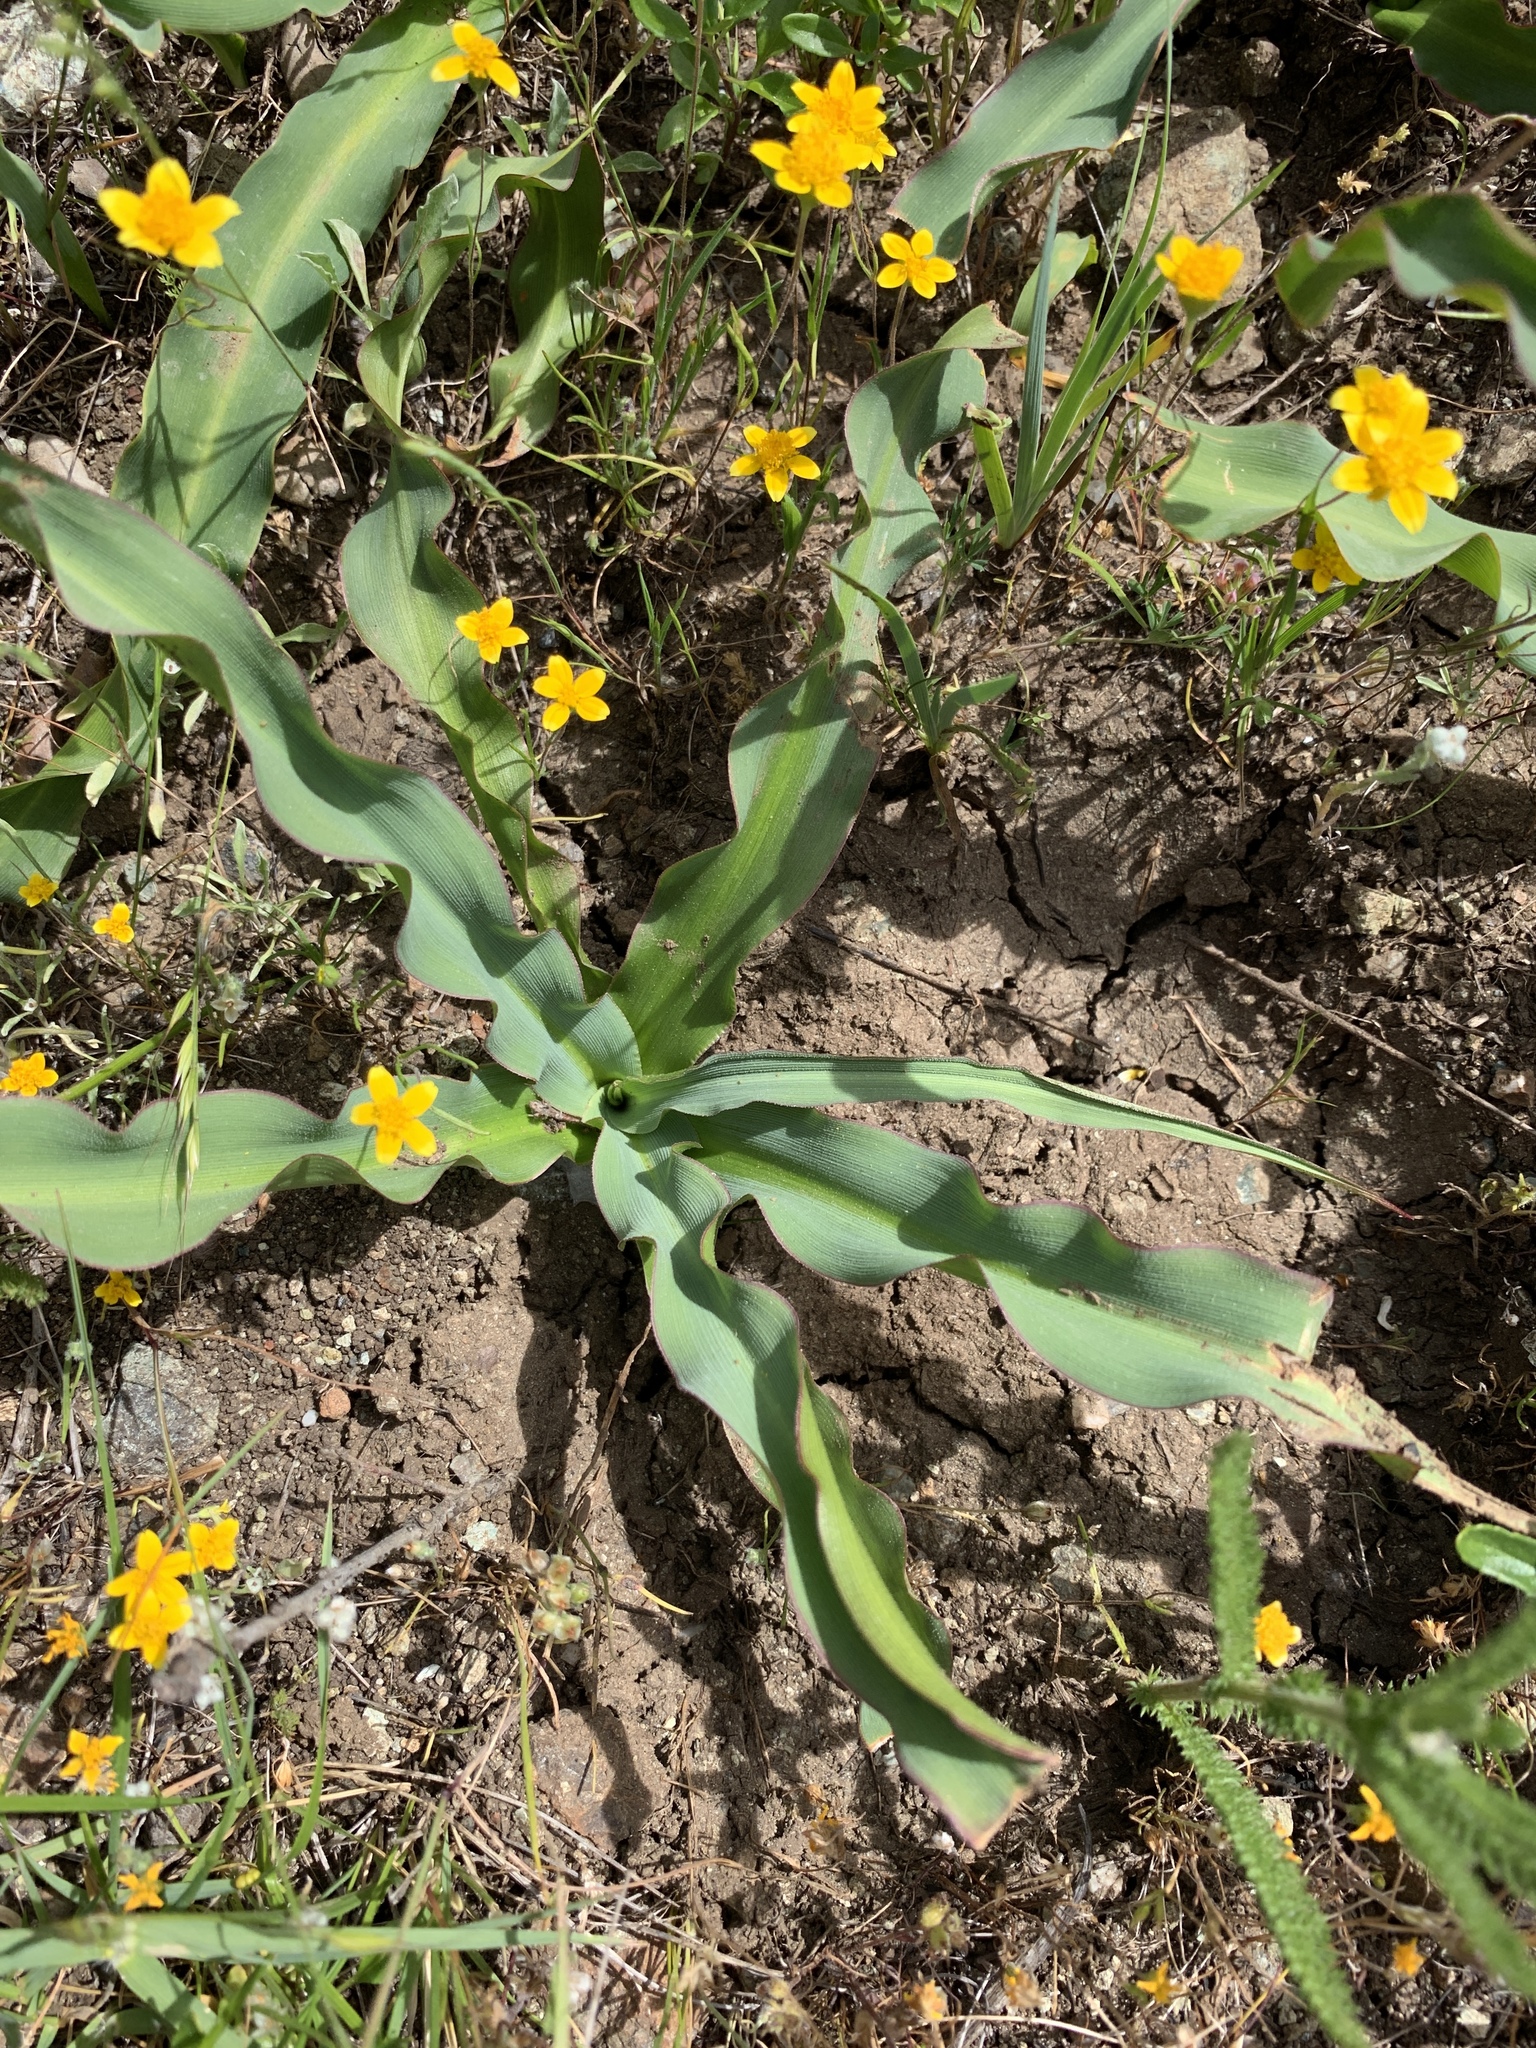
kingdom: Plantae
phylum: Tracheophyta
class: Liliopsida
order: Asparagales
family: Asparagaceae
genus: Chlorogalum
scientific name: Chlorogalum pomeridianum
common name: Amole
